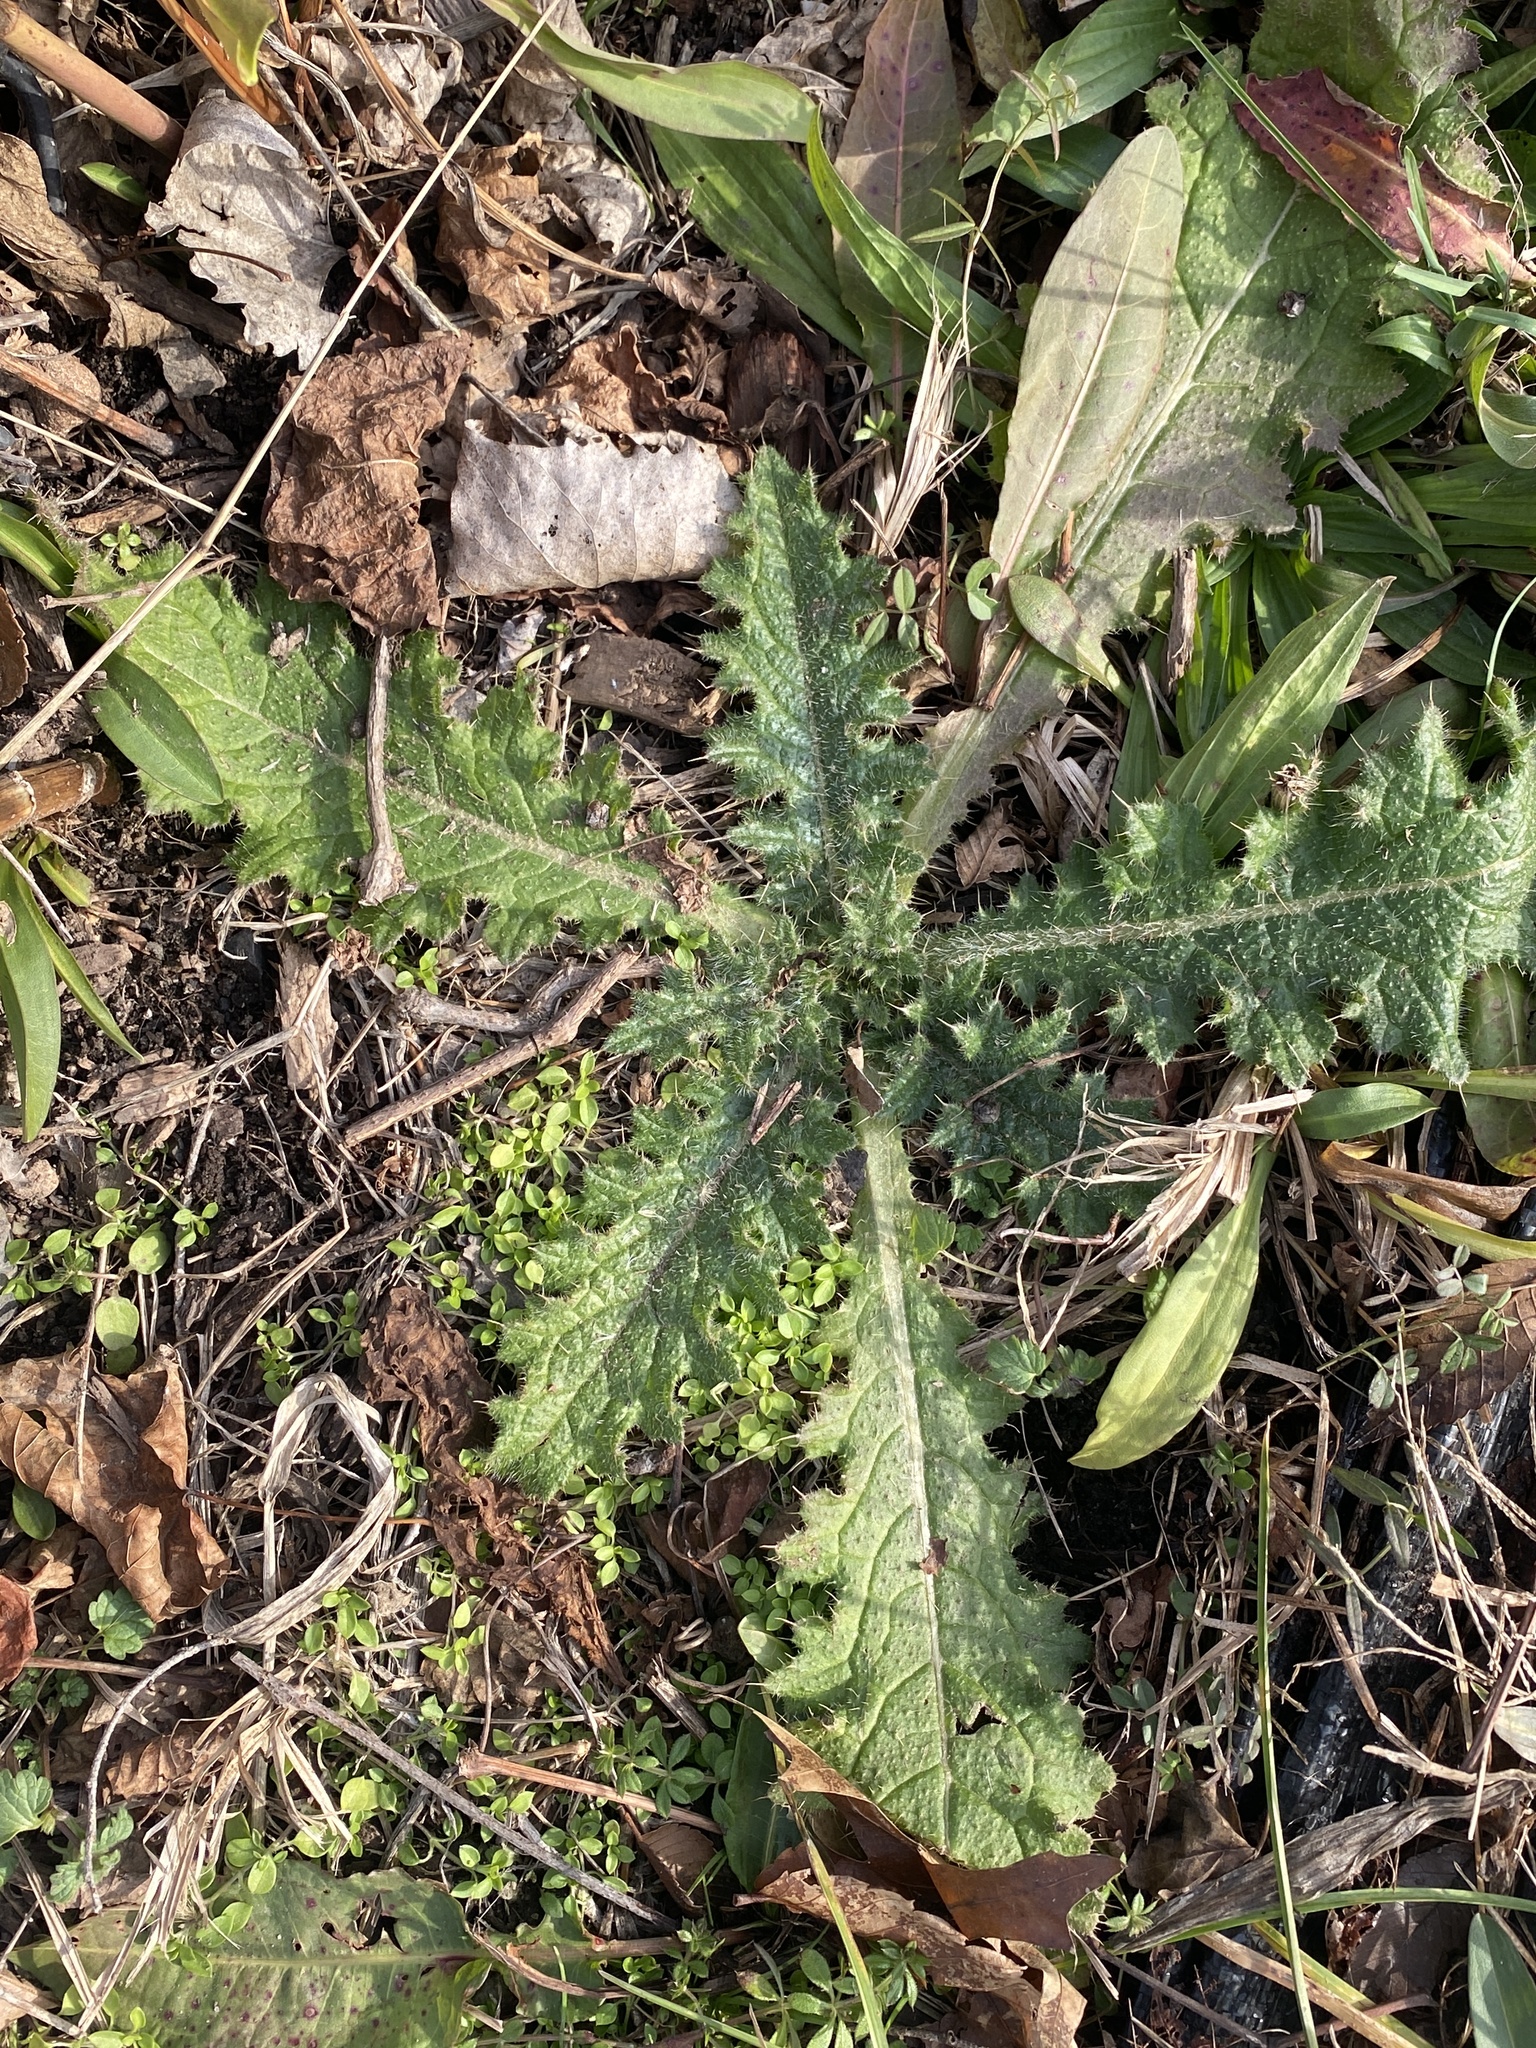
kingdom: Plantae
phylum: Tracheophyta
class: Magnoliopsida
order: Asterales
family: Asteraceae
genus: Cirsium
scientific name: Cirsium vulgare
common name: Bull thistle
